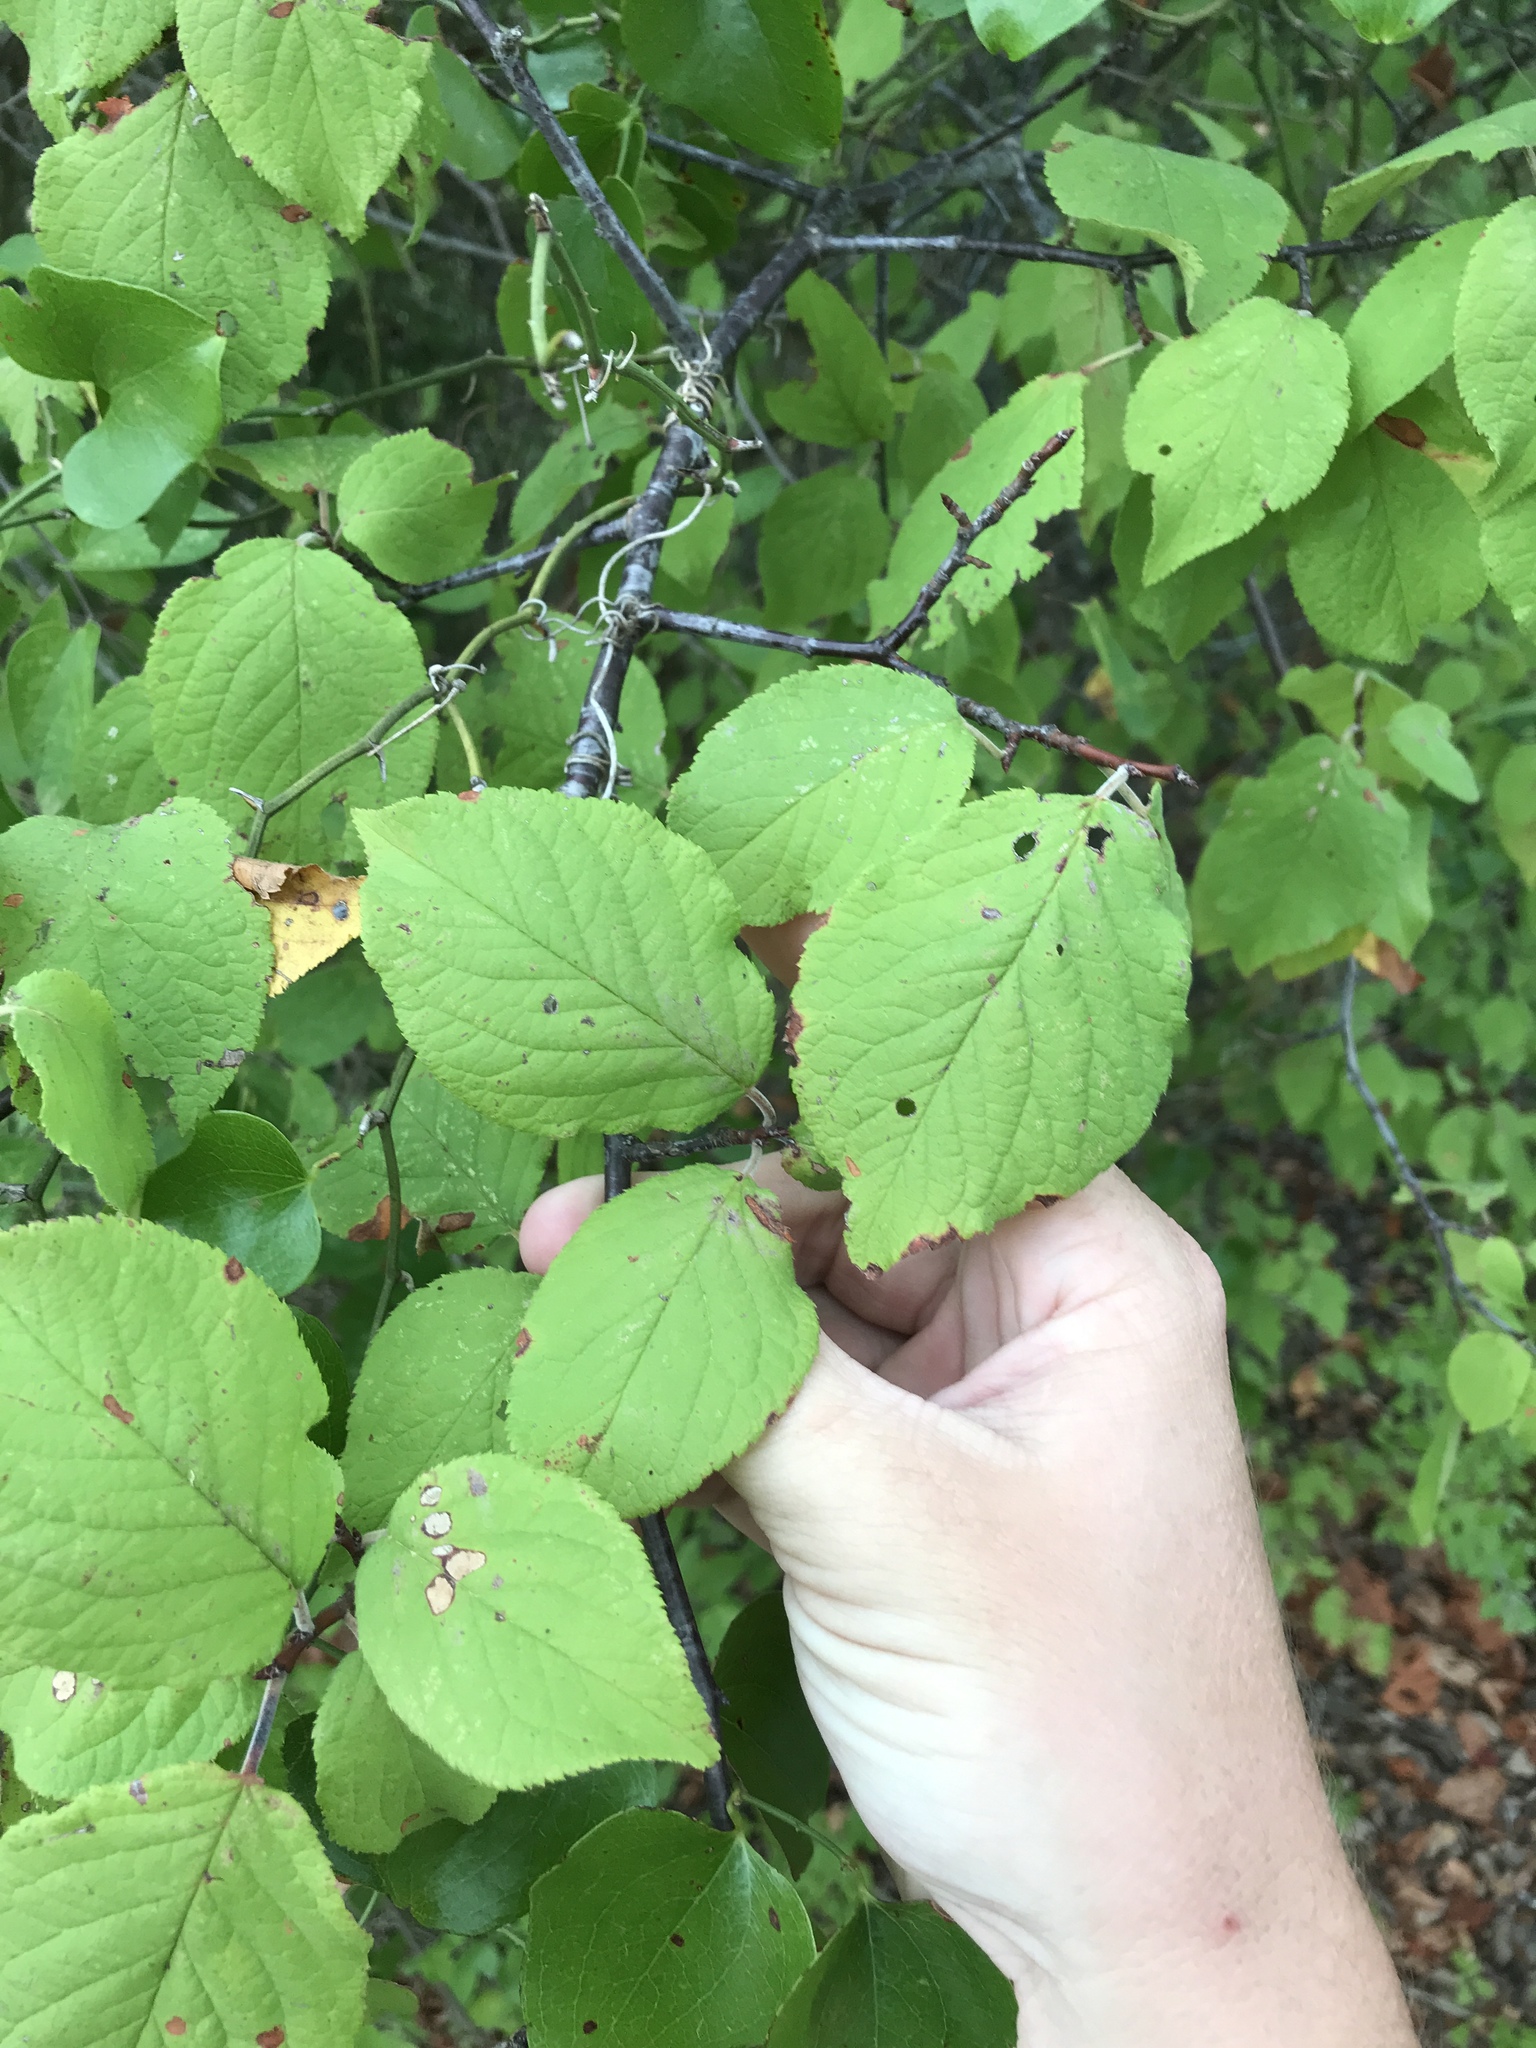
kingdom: Plantae
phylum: Tracheophyta
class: Magnoliopsida
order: Rosales
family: Rosaceae
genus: Prunus
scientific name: Prunus mexicana
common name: Mexican plum
